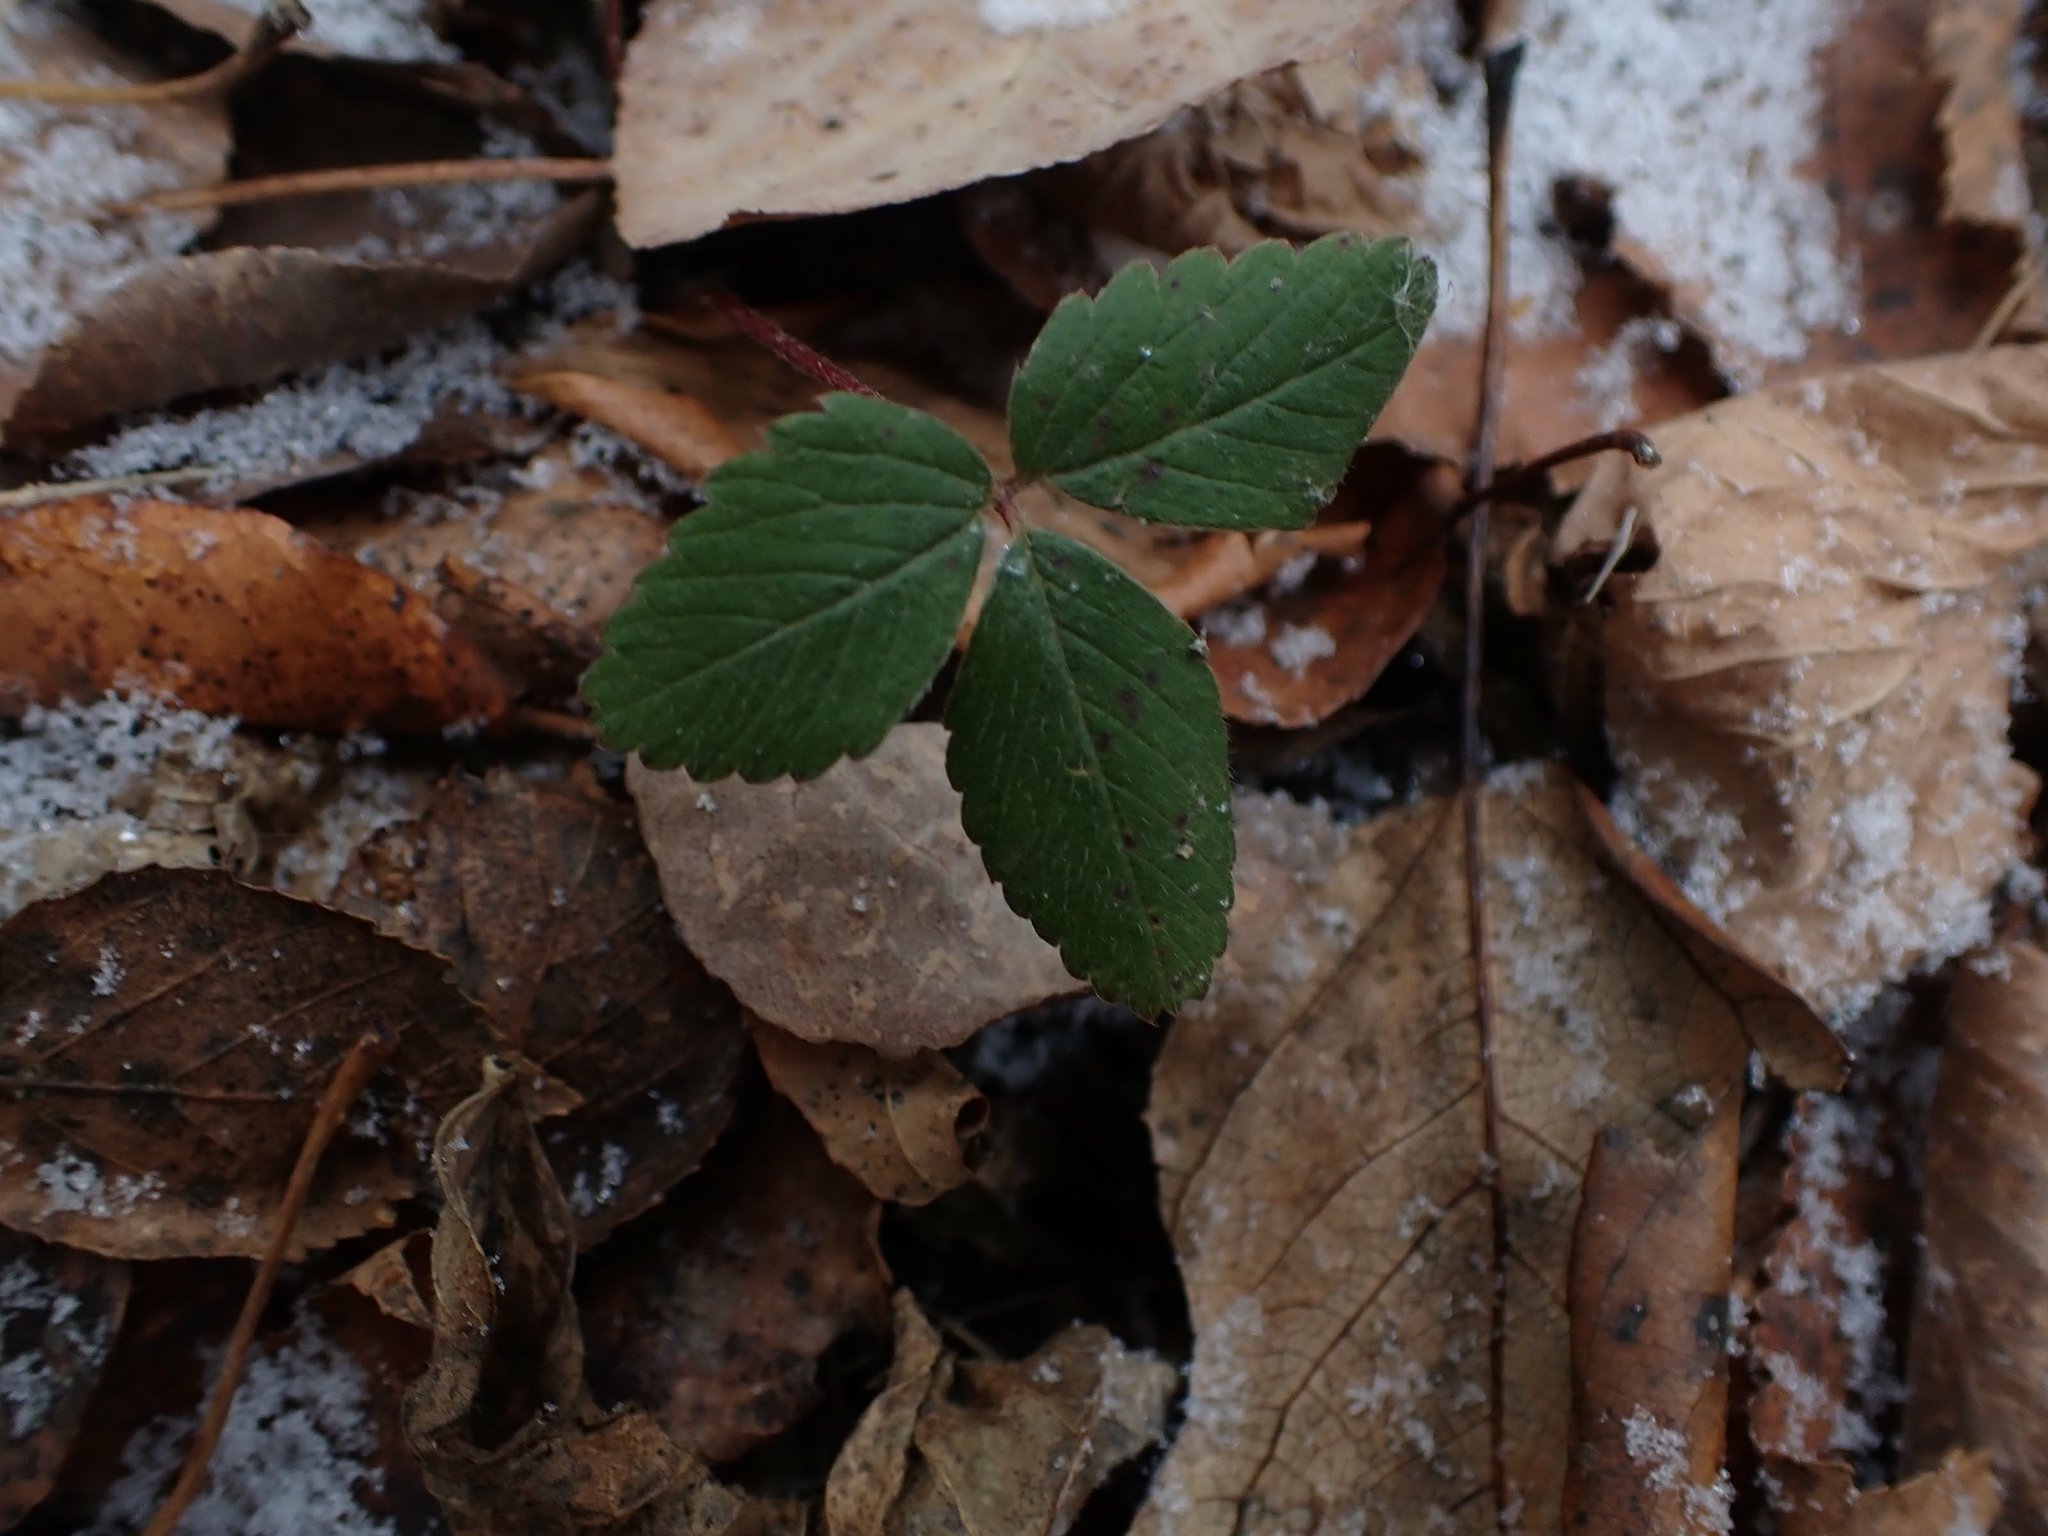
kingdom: Plantae
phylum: Tracheophyta
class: Magnoliopsida
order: Rosales
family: Rosaceae
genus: Fragaria
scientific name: Fragaria virginiana
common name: Thickleaved wild strawberry
